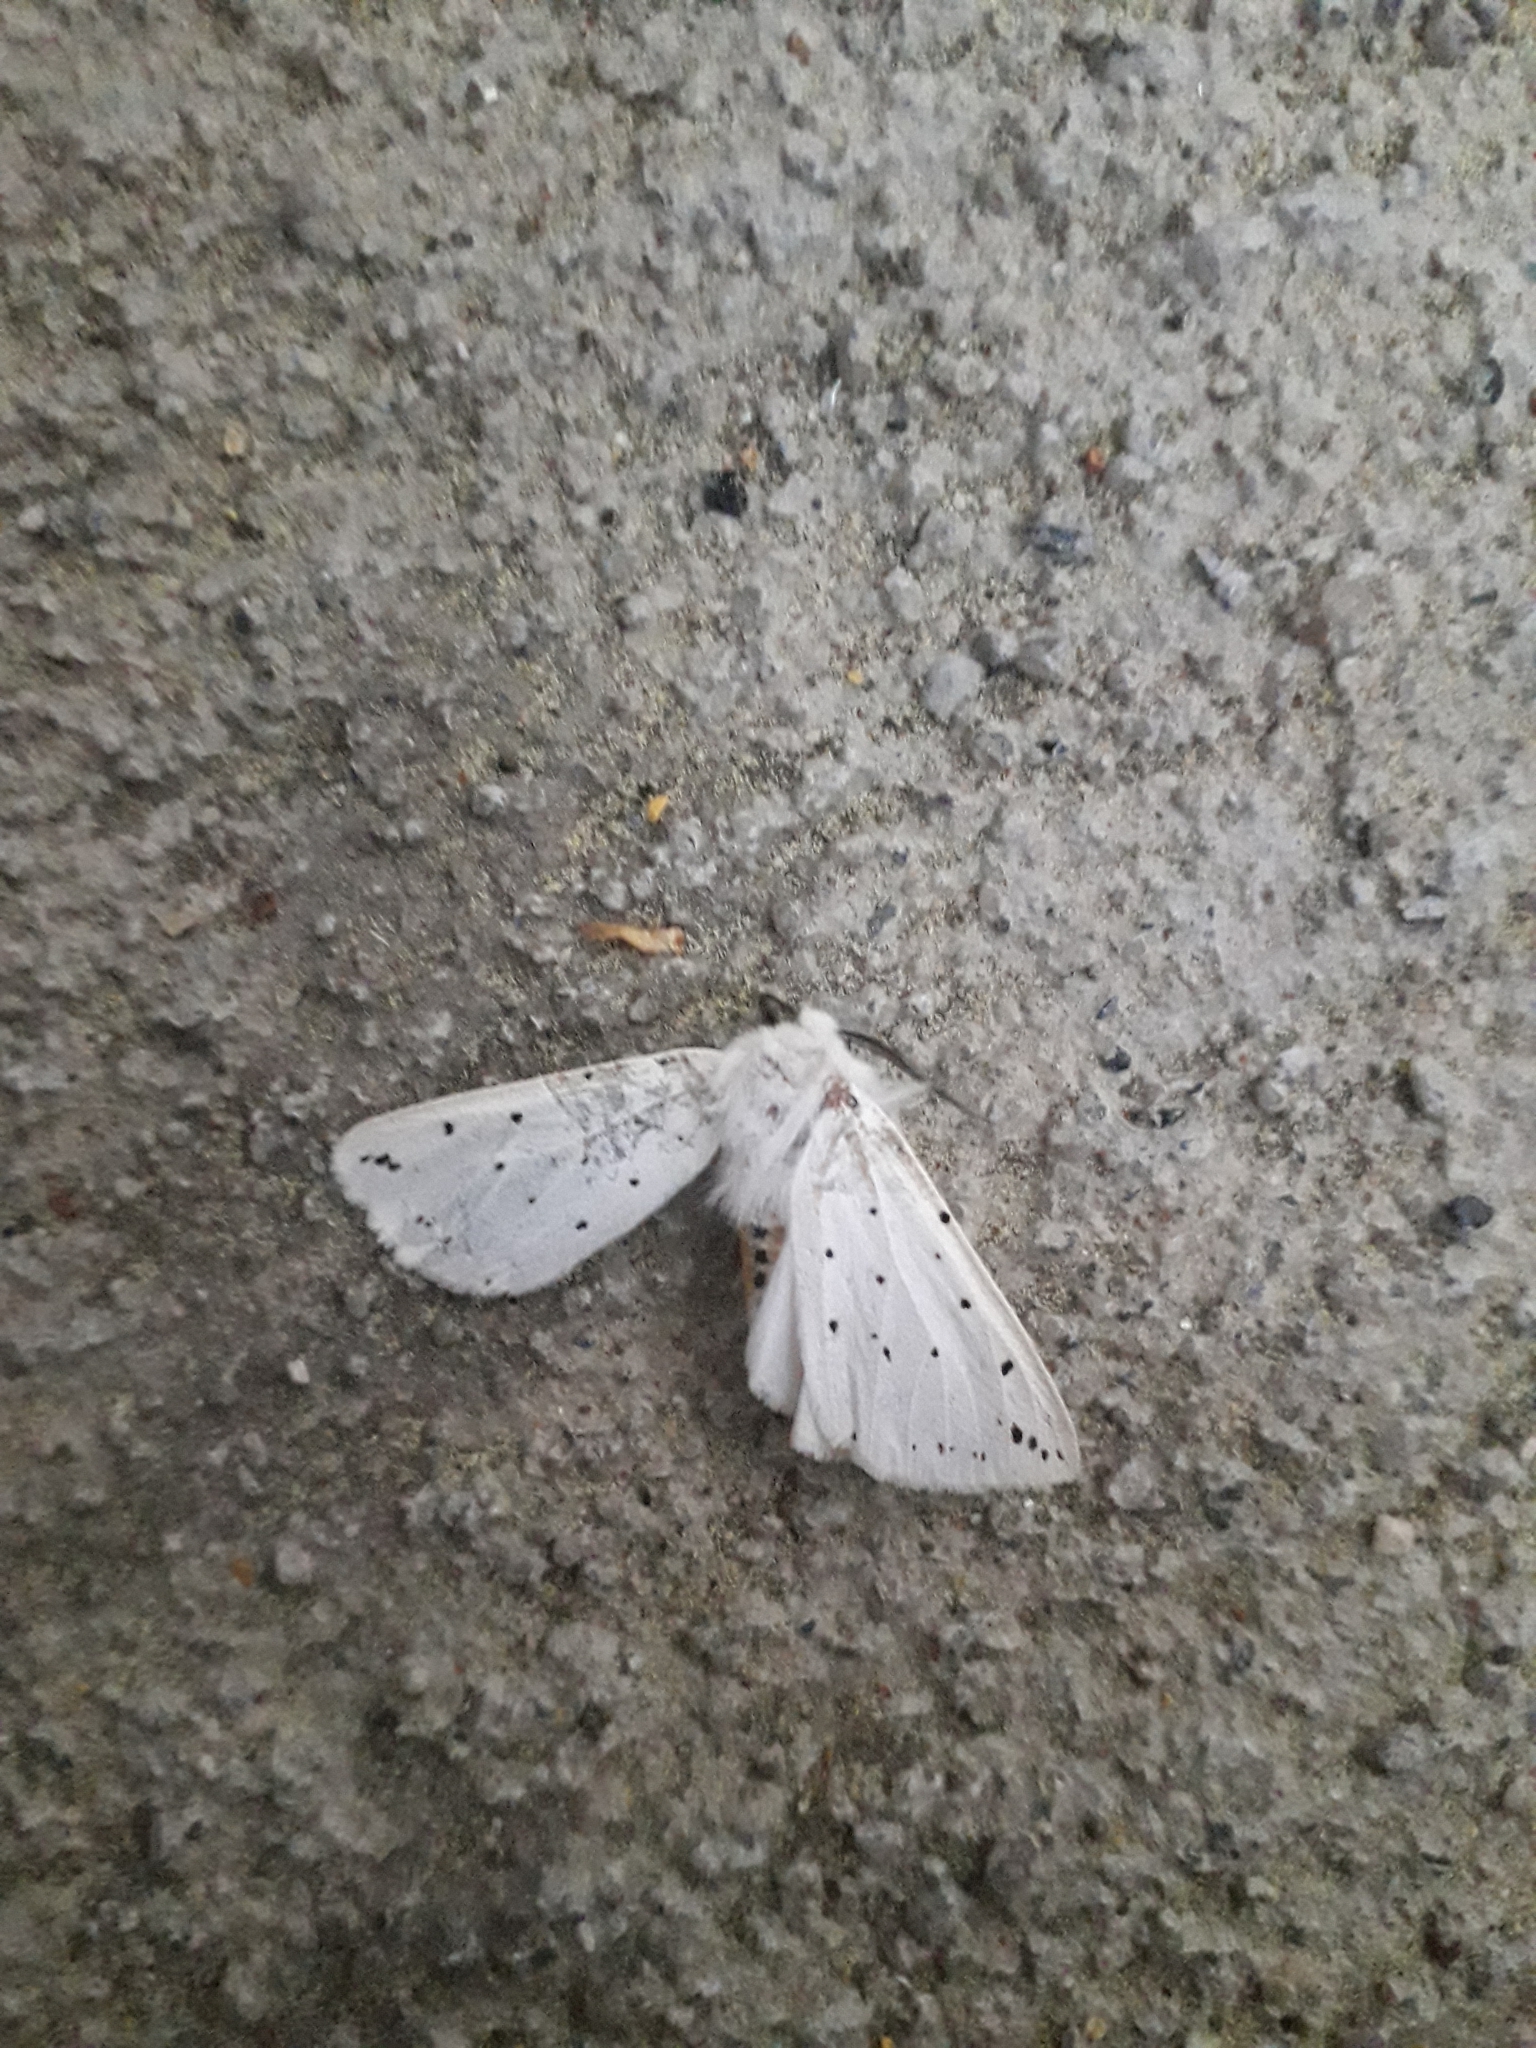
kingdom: Animalia
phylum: Arthropoda
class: Insecta
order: Lepidoptera
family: Erebidae
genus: Spilosoma
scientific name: Spilosoma lubricipeda
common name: White ermine
